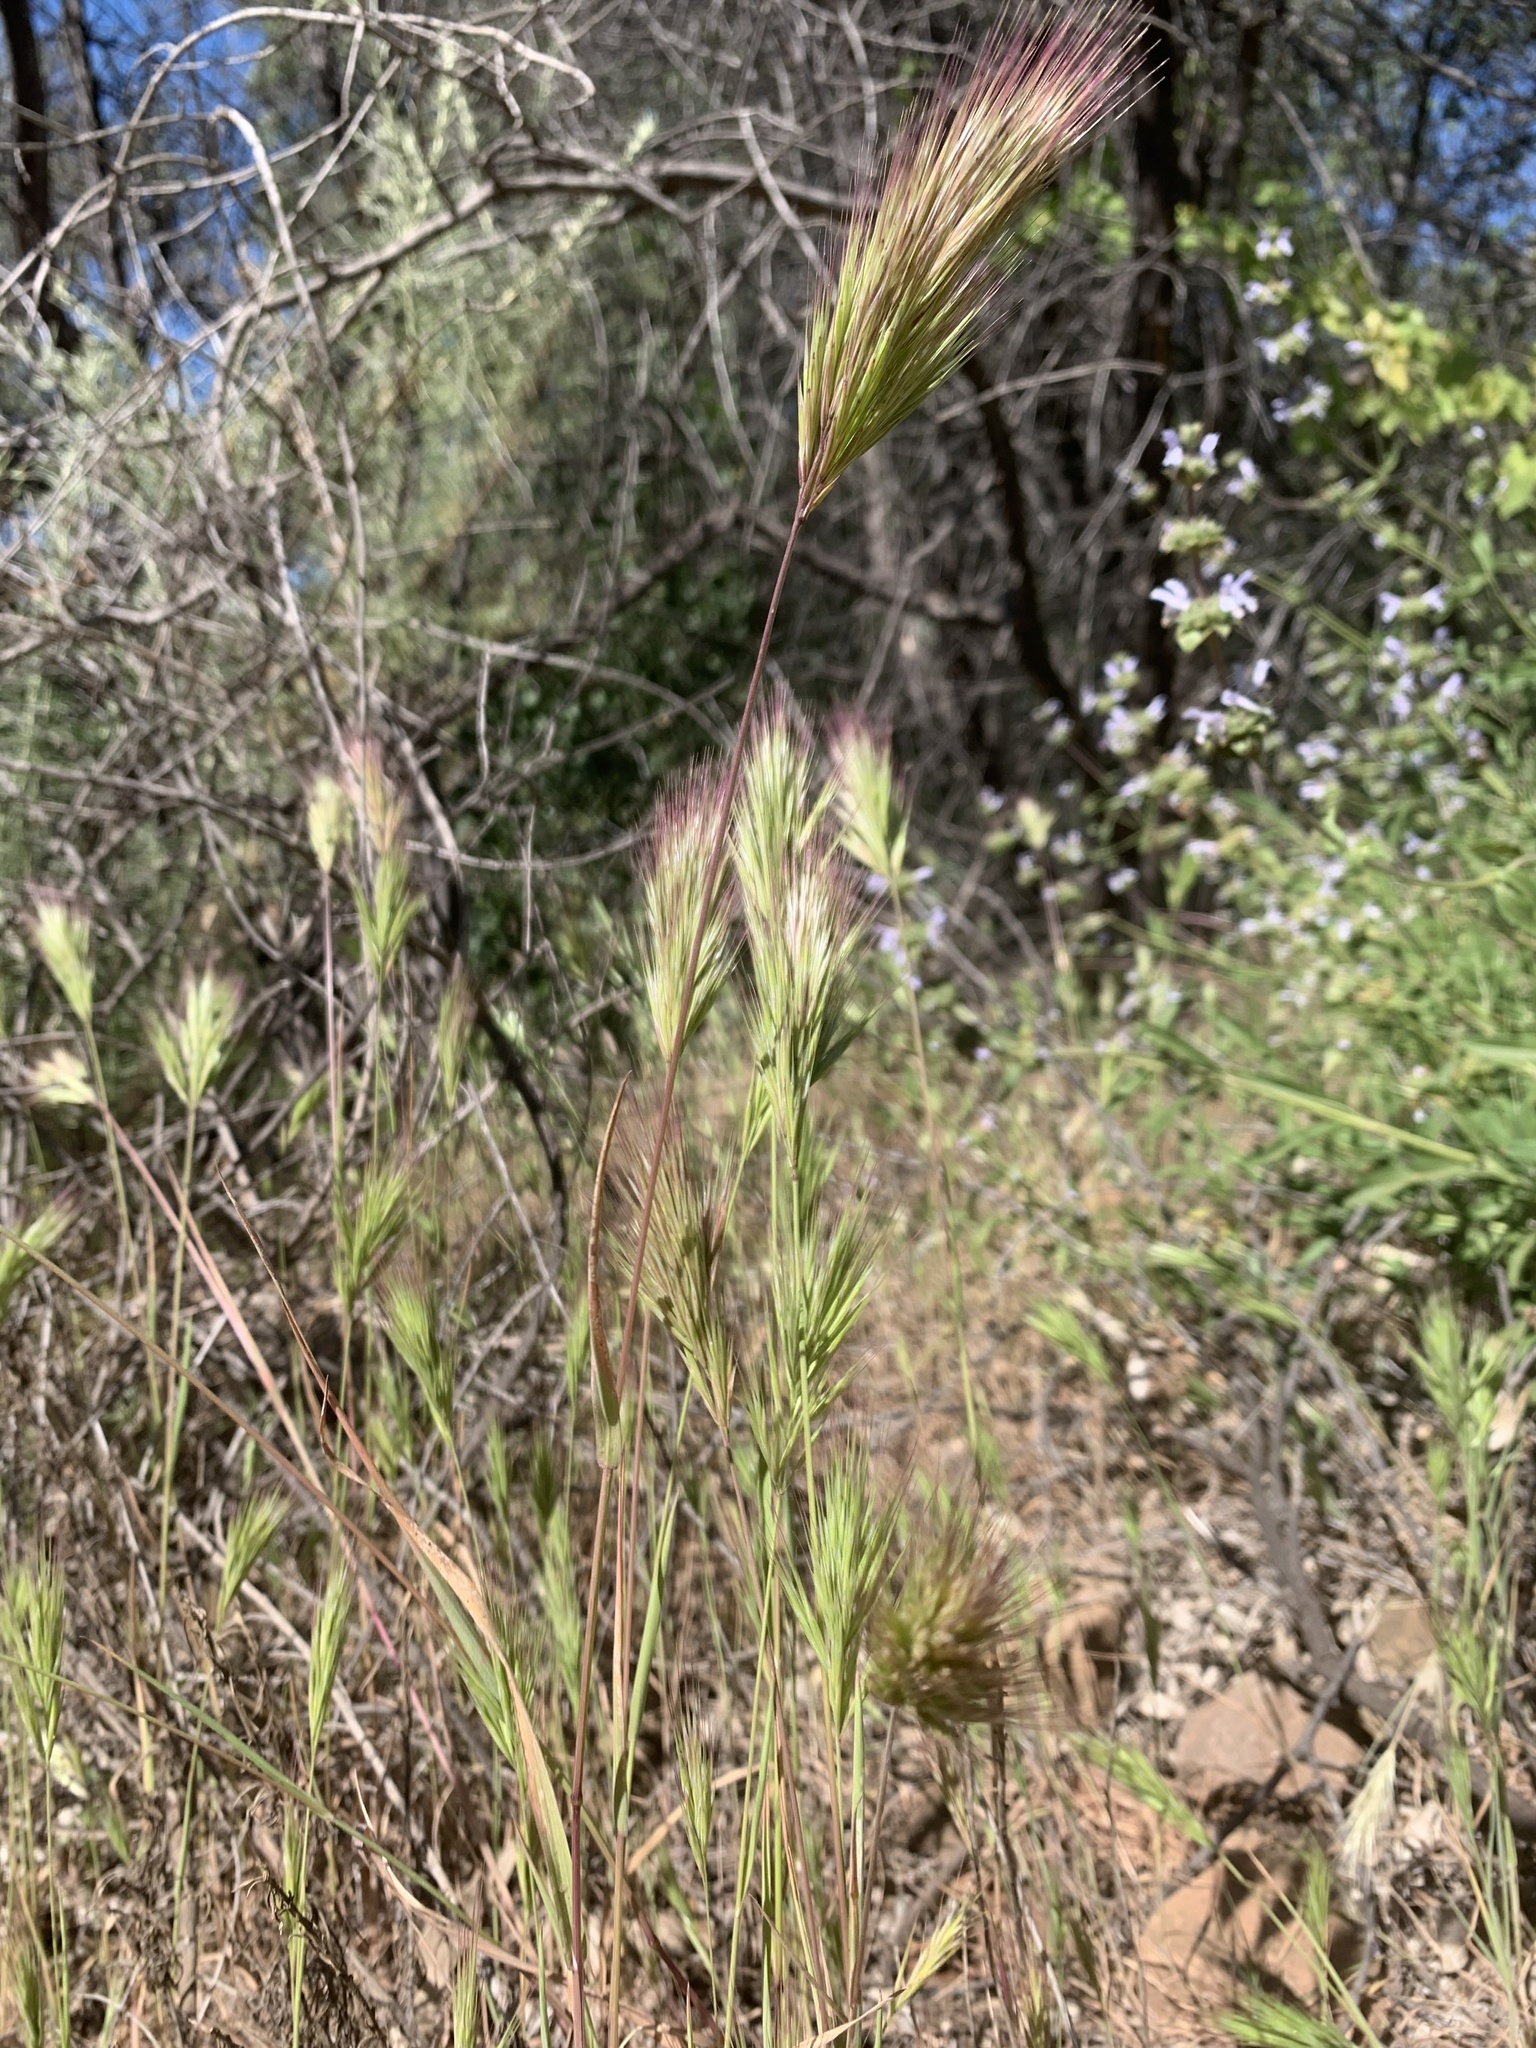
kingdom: Plantae
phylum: Tracheophyta
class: Liliopsida
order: Poales
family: Poaceae
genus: Bromus
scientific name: Bromus rubens
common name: Red brome
